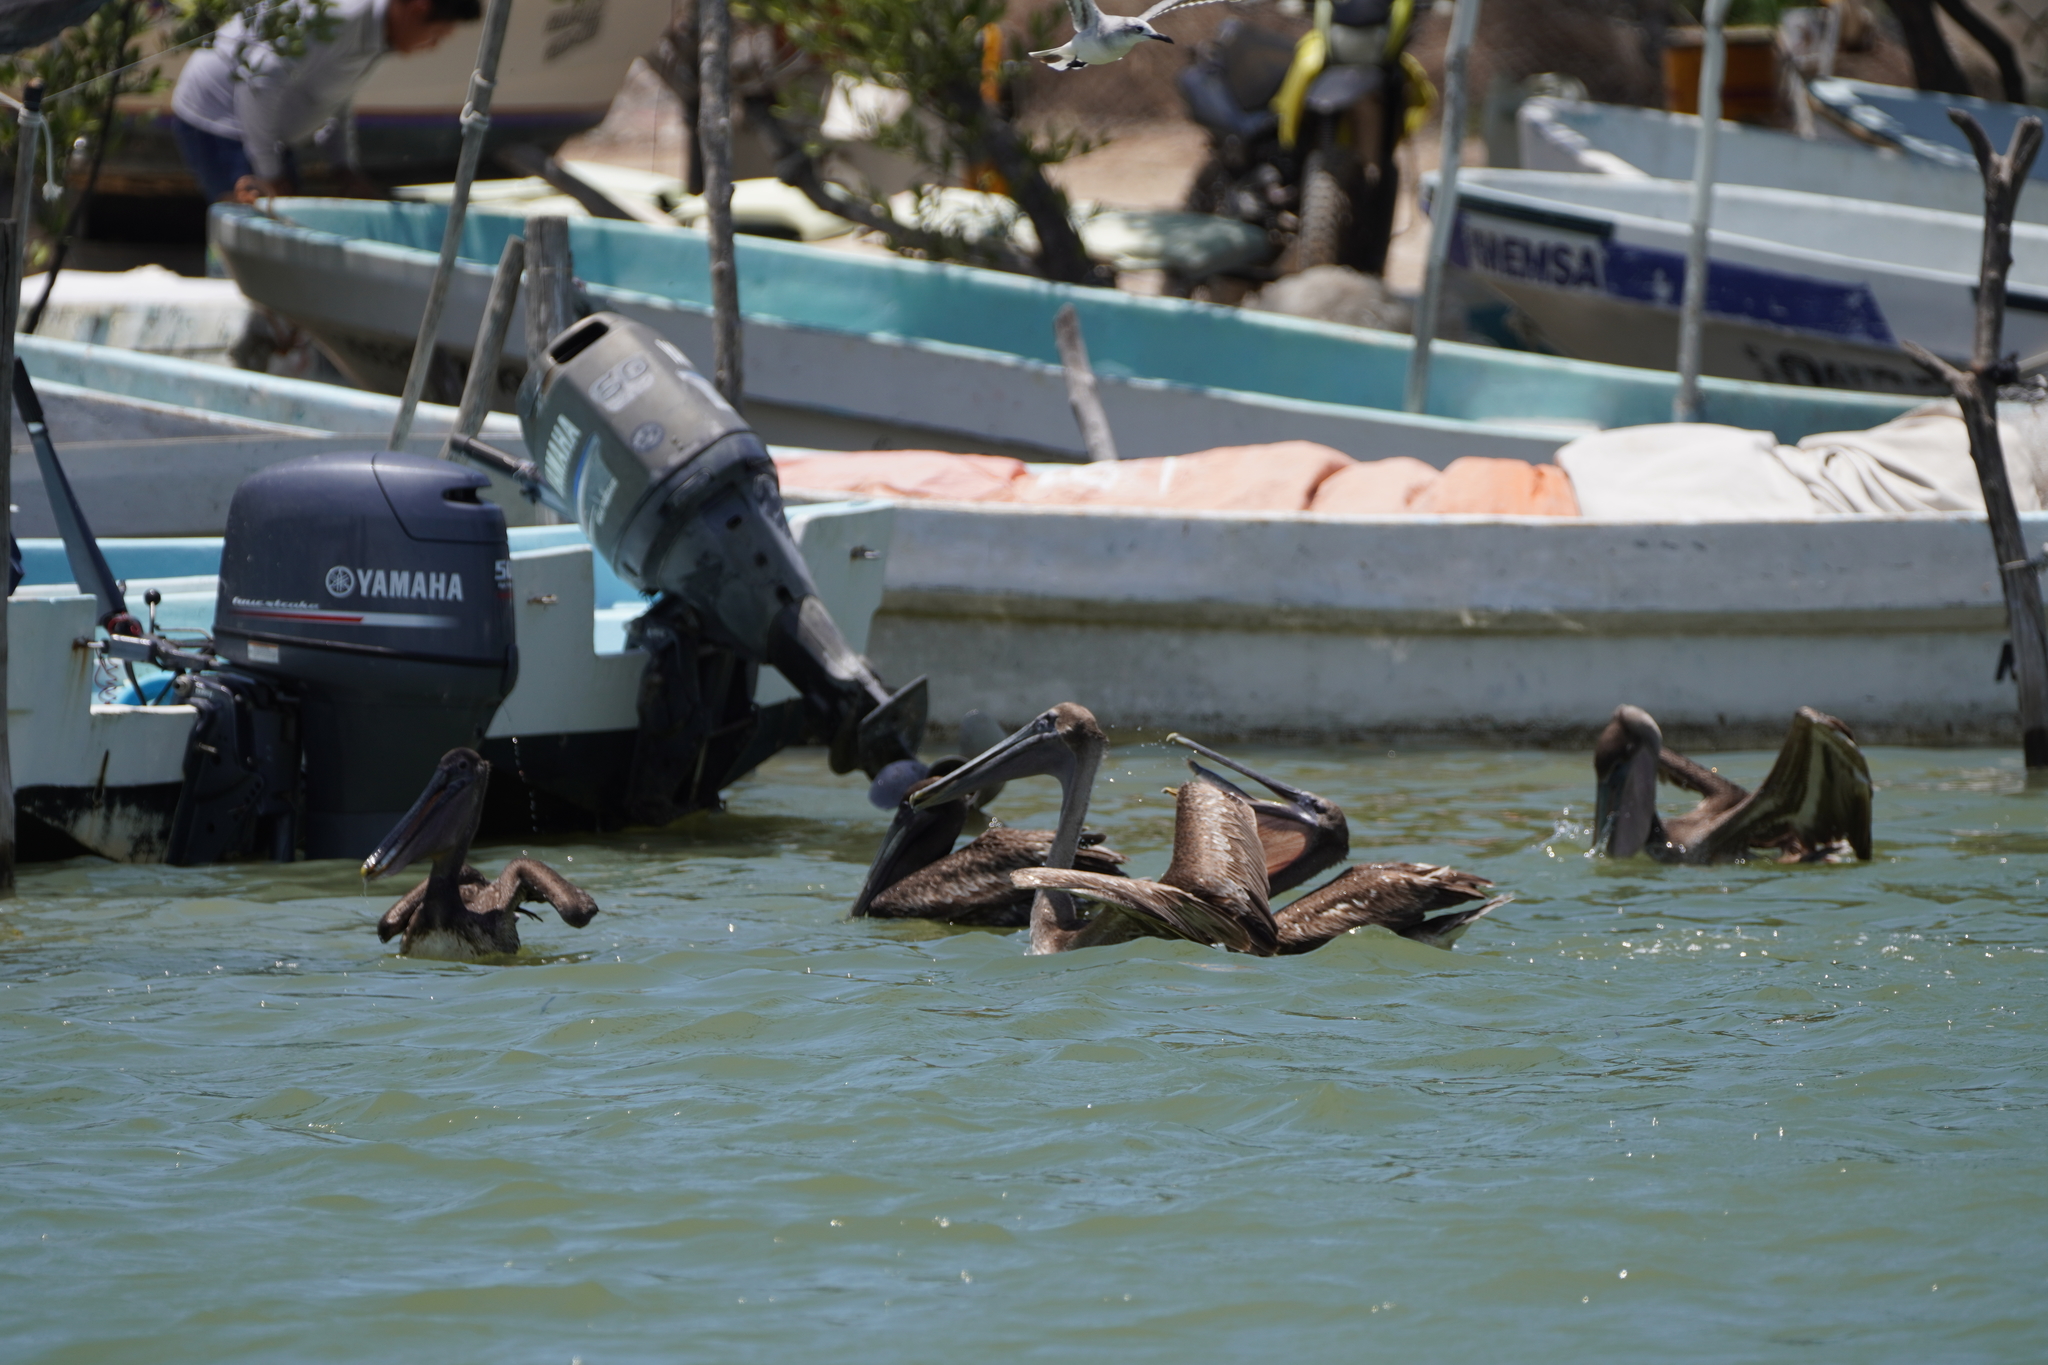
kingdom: Animalia
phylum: Chordata
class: Aves
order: Pelecaniformes
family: Pelecanidae
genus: Pelecanus
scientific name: Pelecanus occidentalis
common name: Brown pelican
